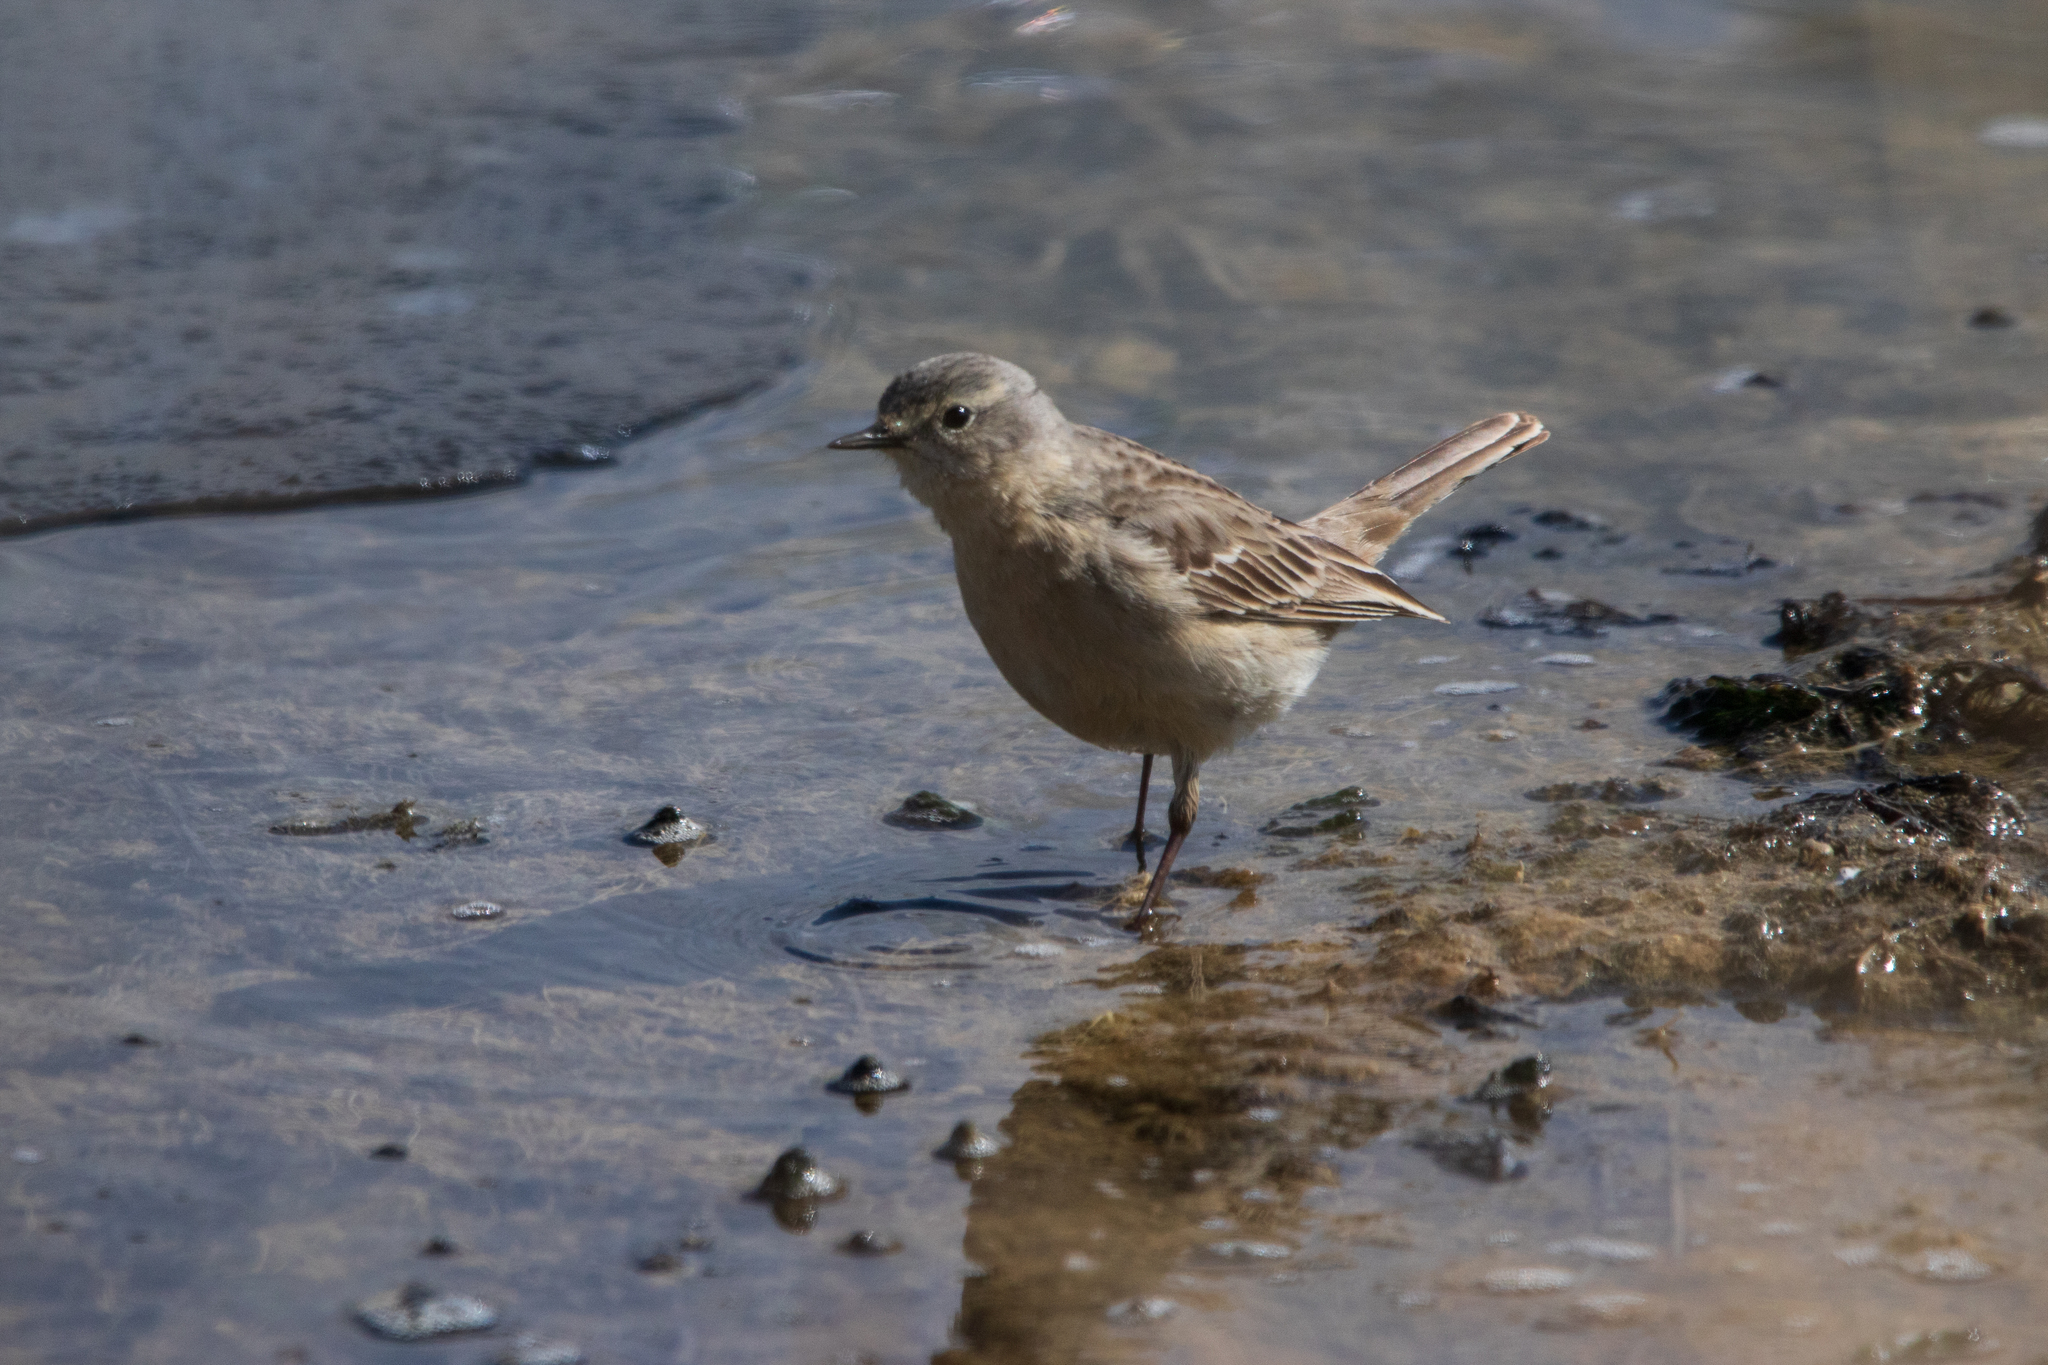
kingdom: Animalia
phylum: Chordata
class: Aves
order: Passeriformes
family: Motacillidae
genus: Anthus
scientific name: Anthus spinoletta
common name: Water pipit
